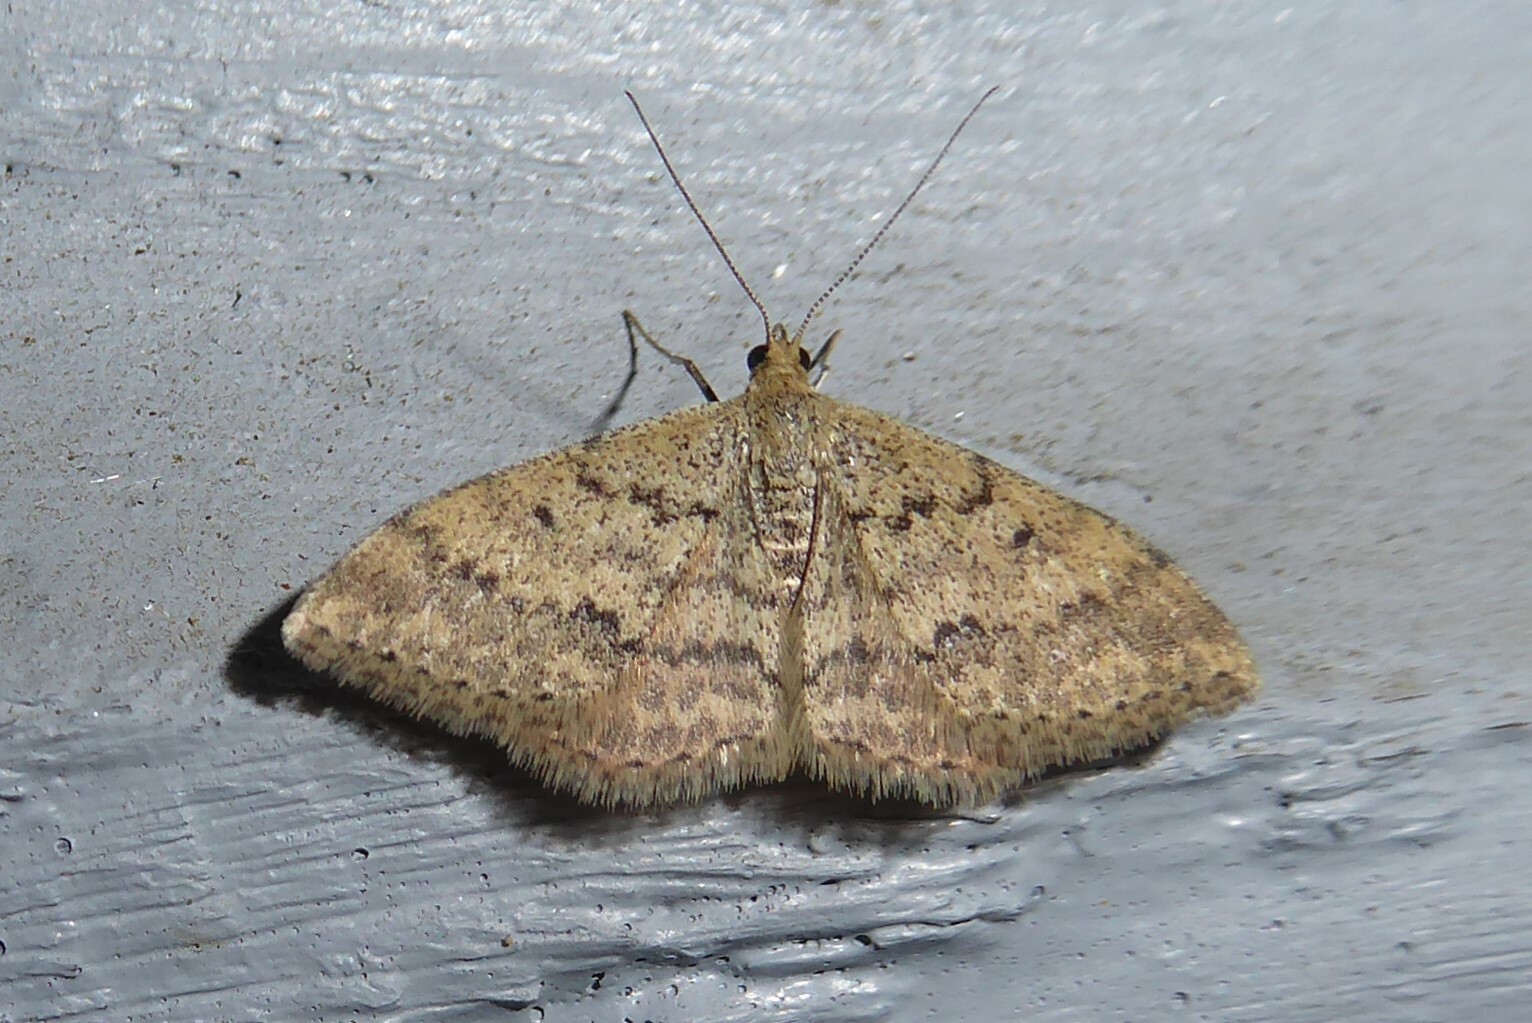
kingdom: Animalia
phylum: Arthropoda
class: Insecta
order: Lepidoptera
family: Geometridae
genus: Scopula
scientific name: Scopula rubraria
